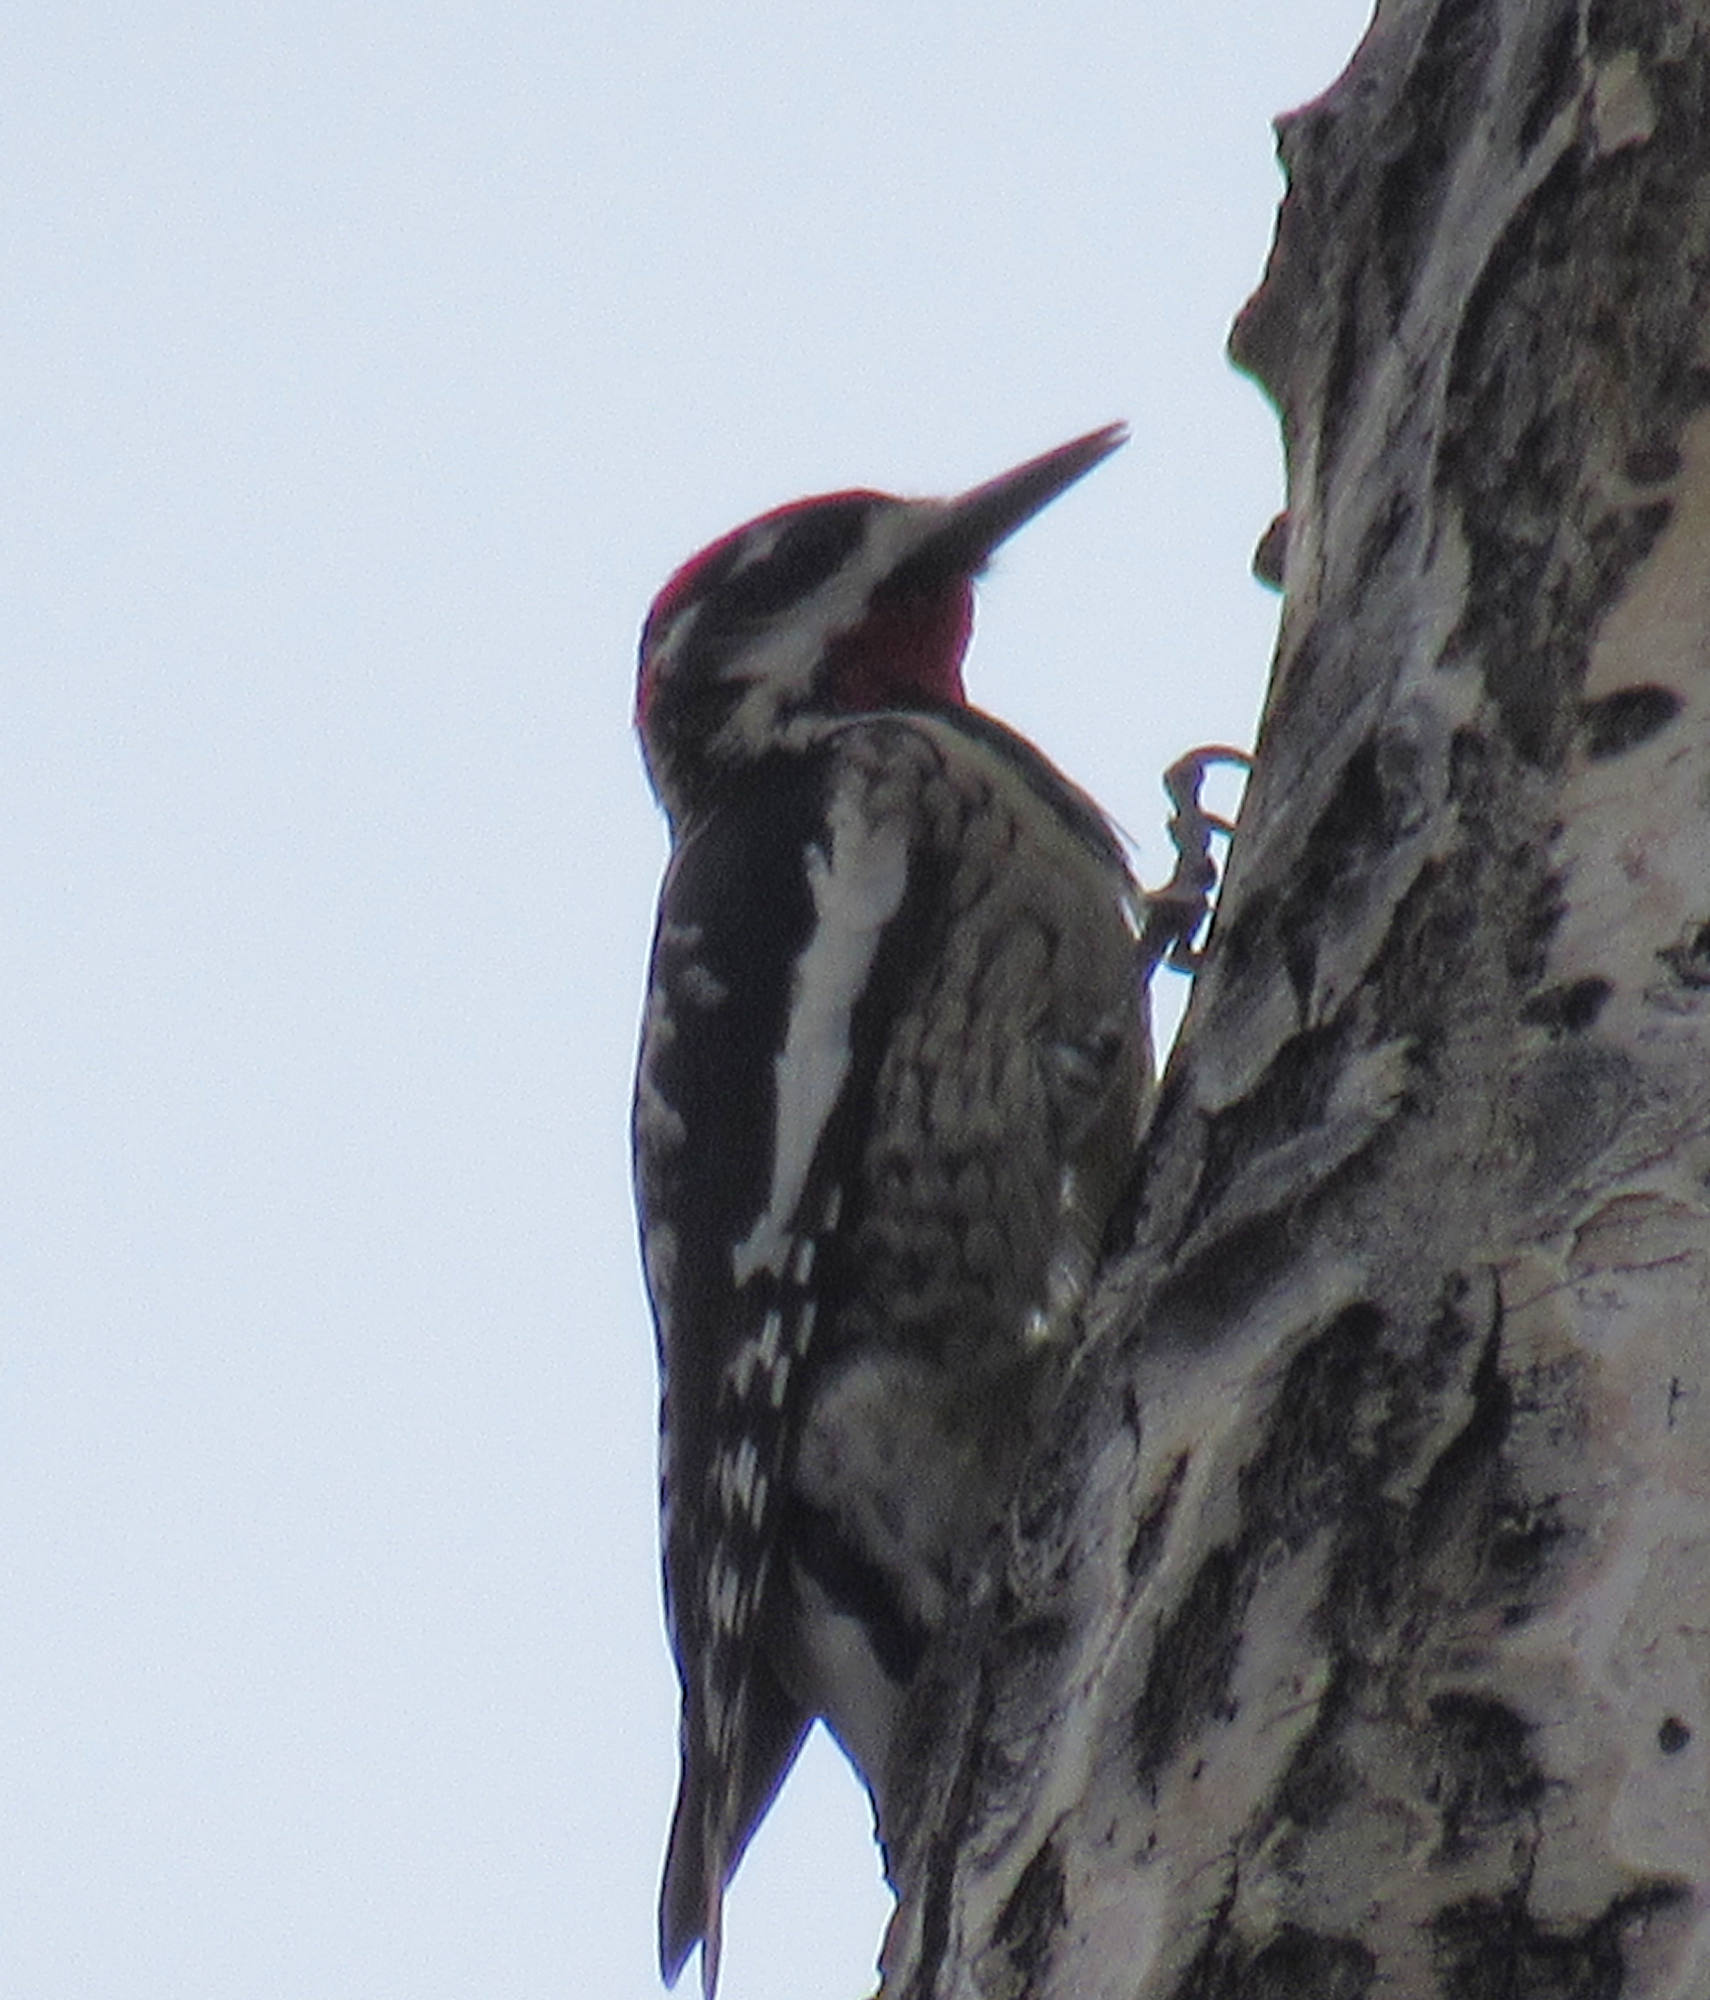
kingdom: Animalia
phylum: Chordata
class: Aves
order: Piciformes
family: Picidae
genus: Sphyrapicus
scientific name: Sphyrapicus nuchalis
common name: Red-naped sapsucker
